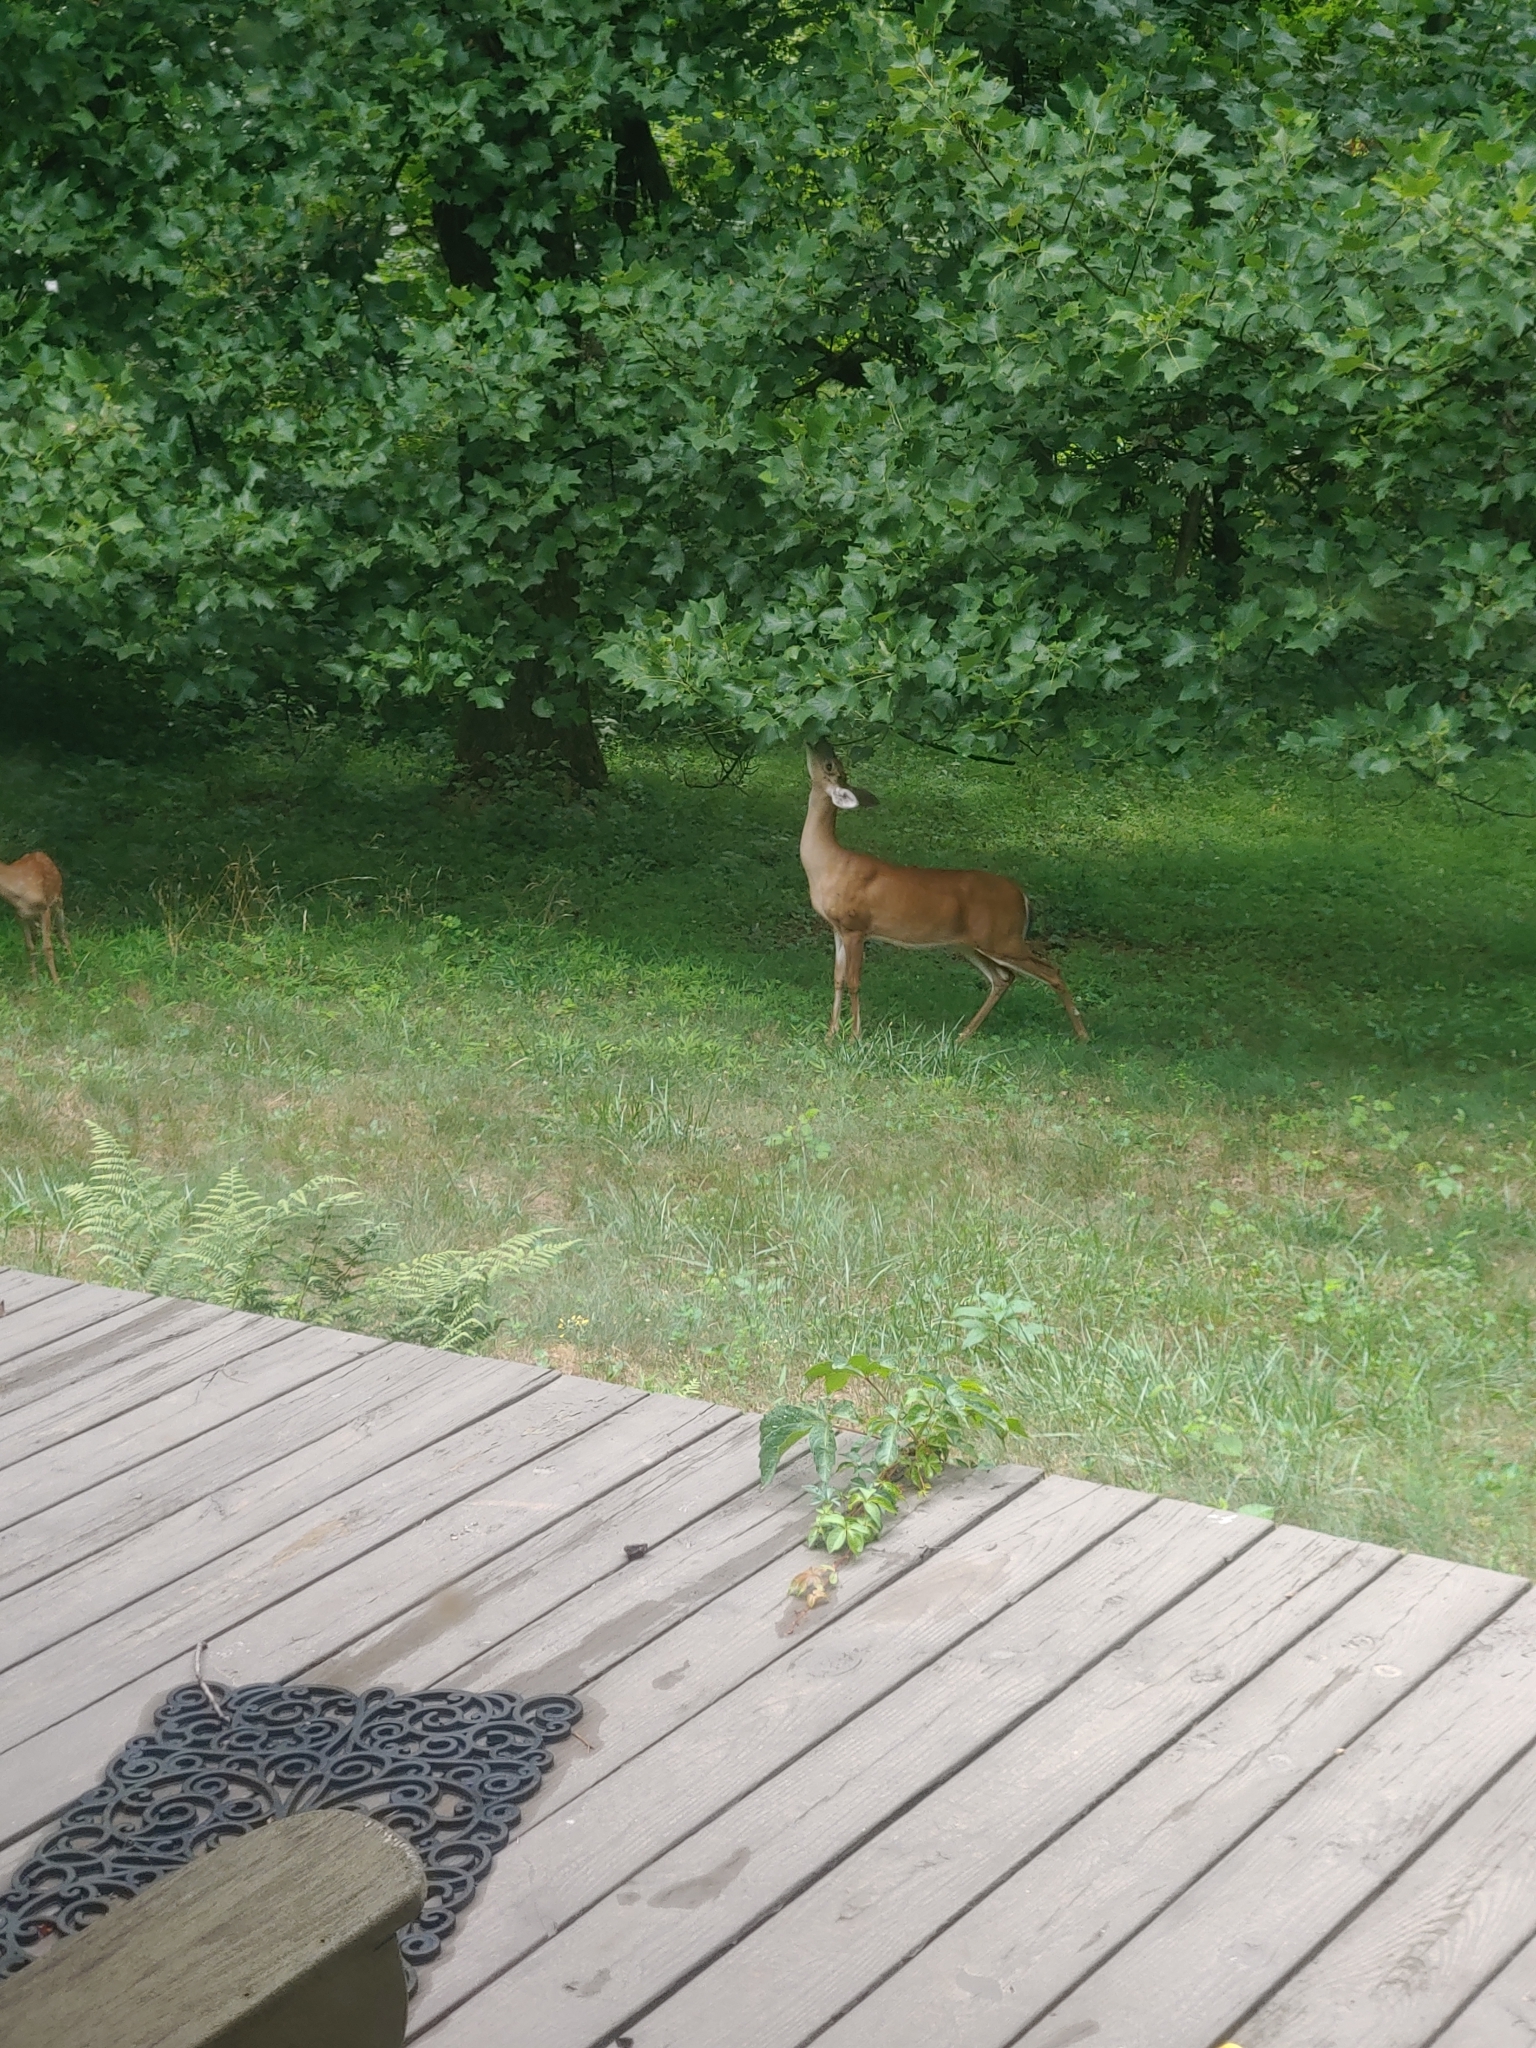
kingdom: Animalia
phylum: Chordata
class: Mammalia
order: Artiodactyla
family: Cervidae
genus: Odocoileus
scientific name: Odocoileus virginianus
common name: White-tailed deer
